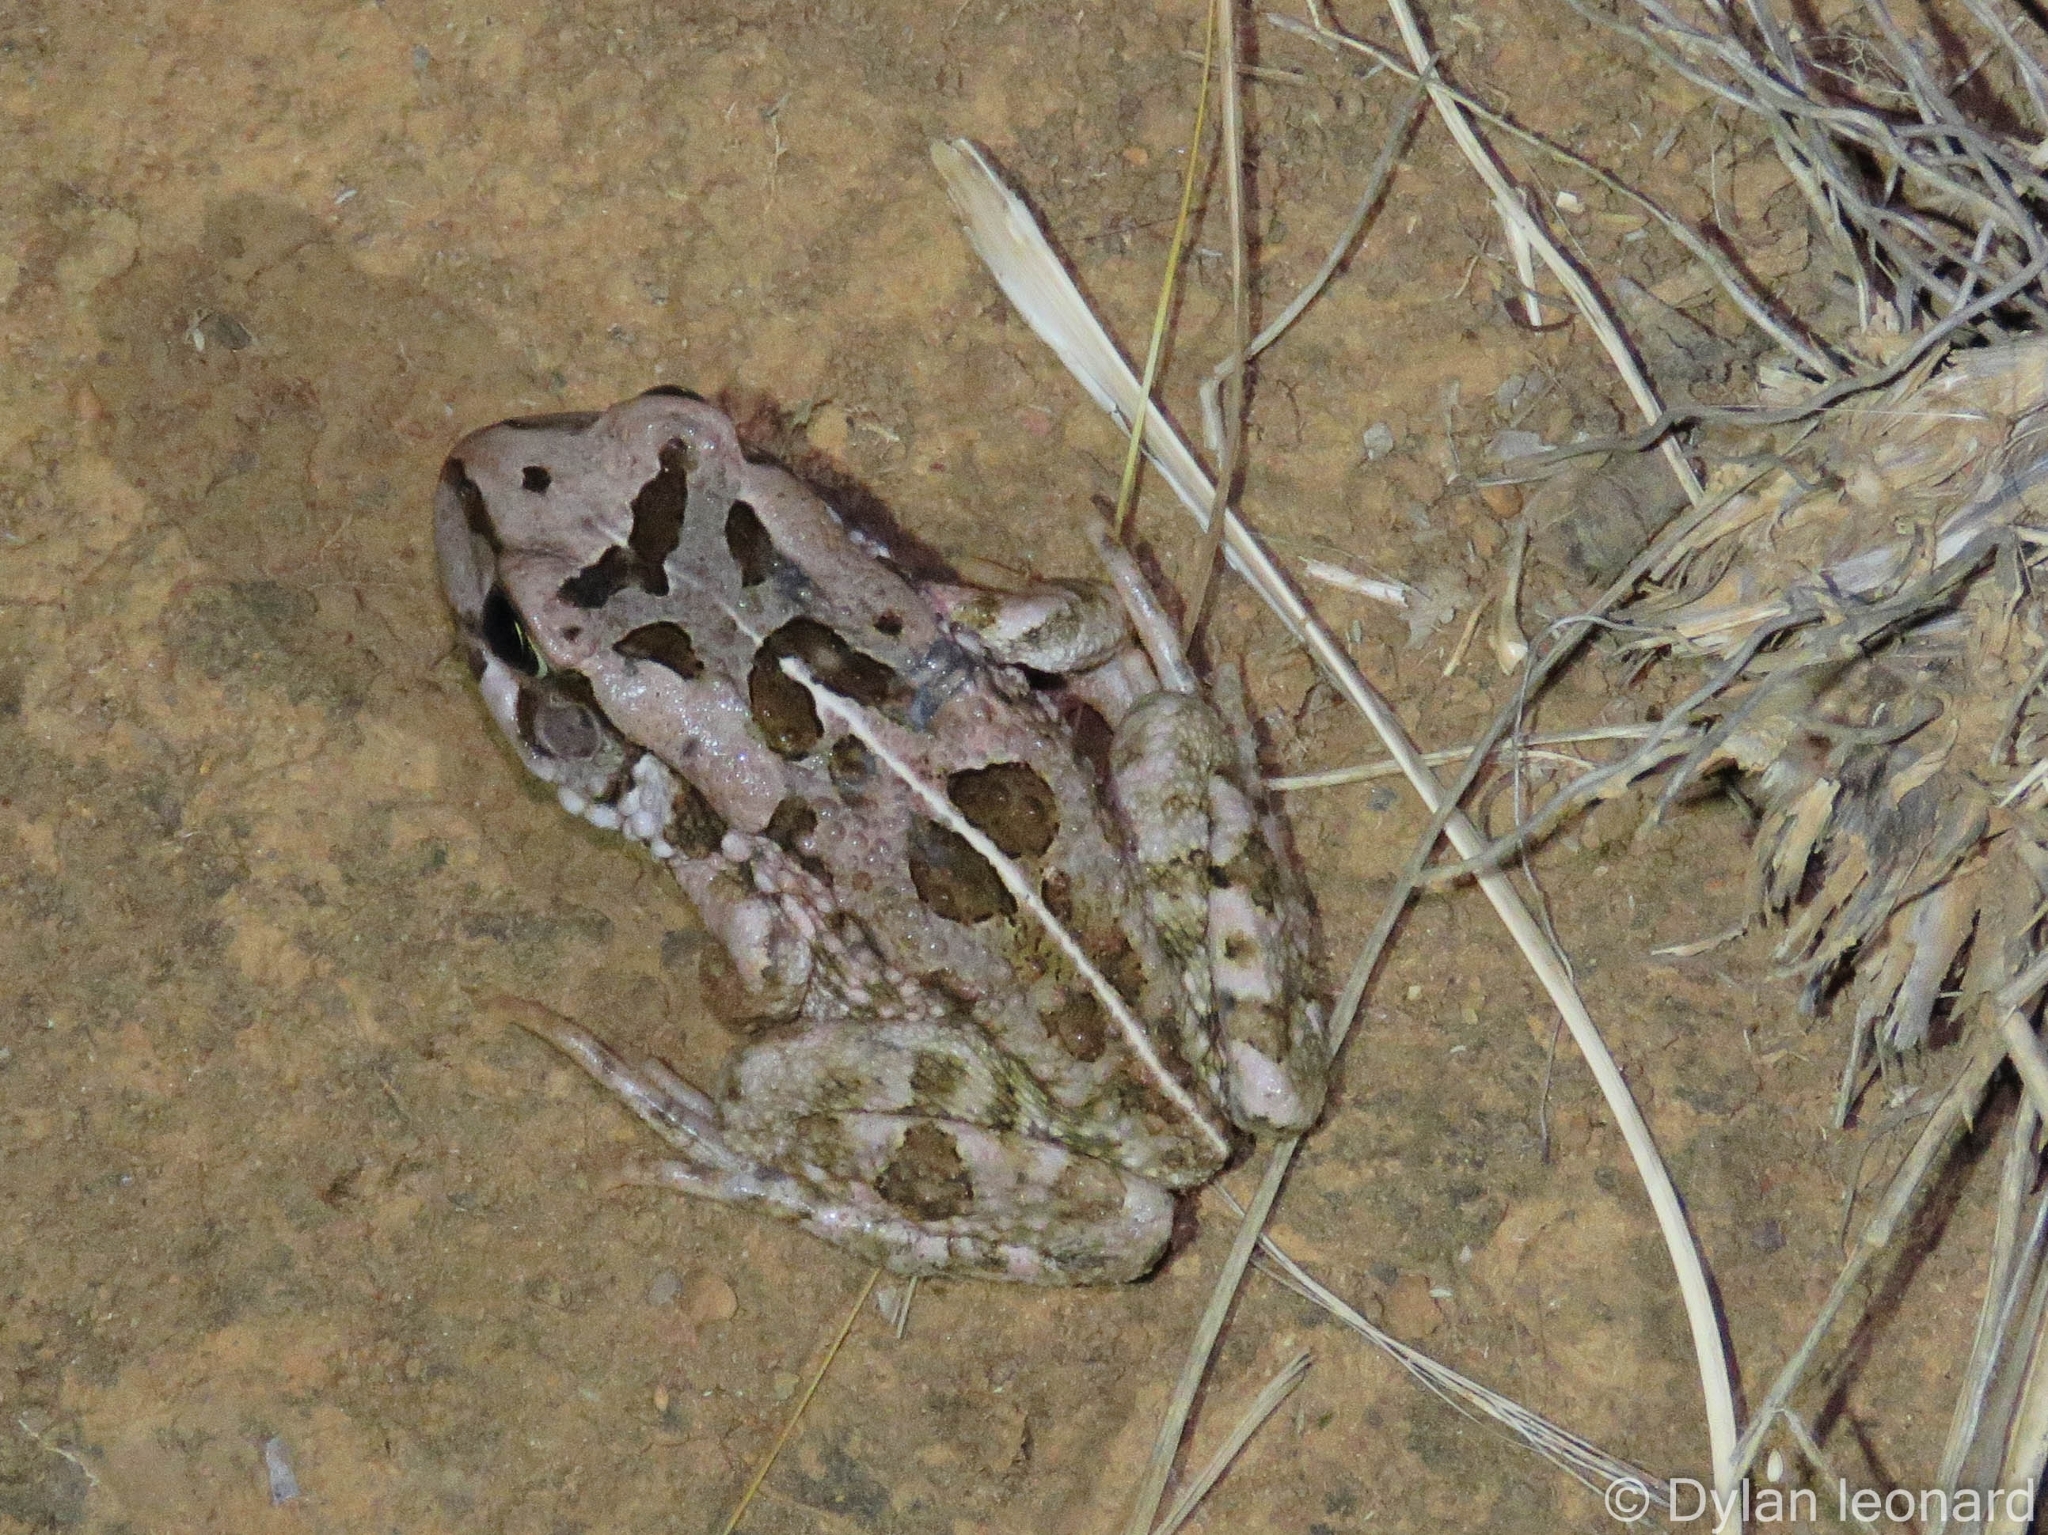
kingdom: Animalia
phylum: Chordata
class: Amphibia
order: Anura
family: Bufonidae
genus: Sclerophrys
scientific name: Sclerophrys capensis
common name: Ranger’s toad
